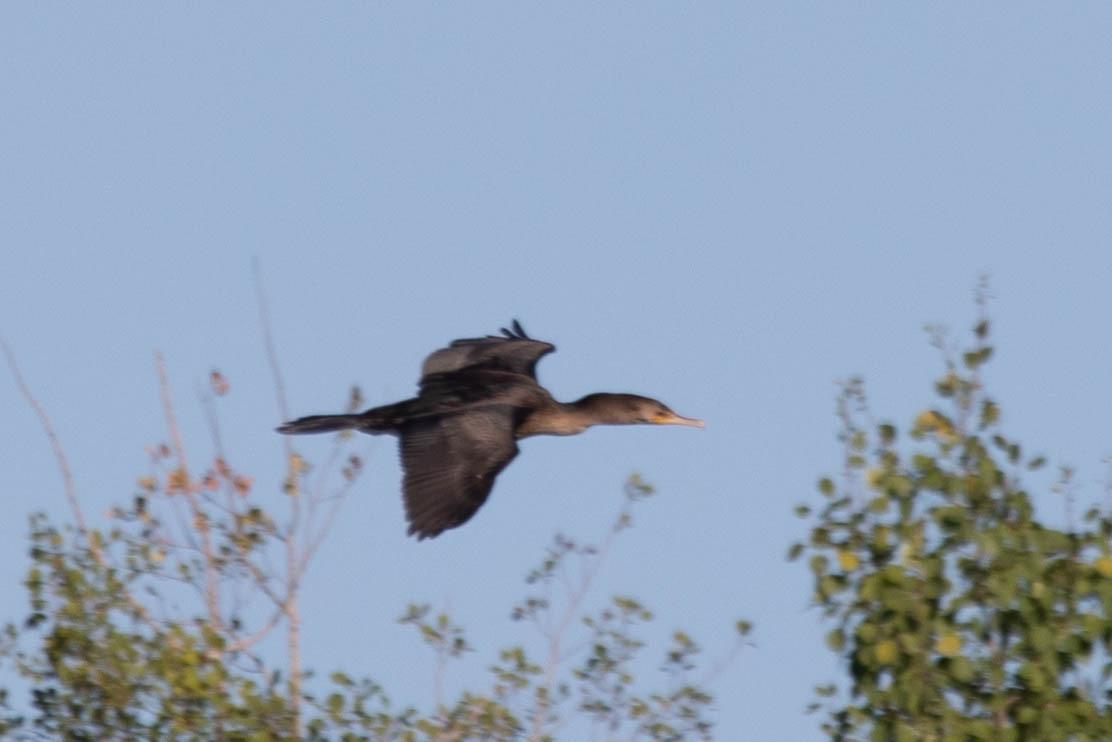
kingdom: Animalia
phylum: Chordata
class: Aves
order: Suliformes
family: Phalacrocoracidae
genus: Phalacrocorax
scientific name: Phalacrocorax auritus
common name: Double-crested cormorant
